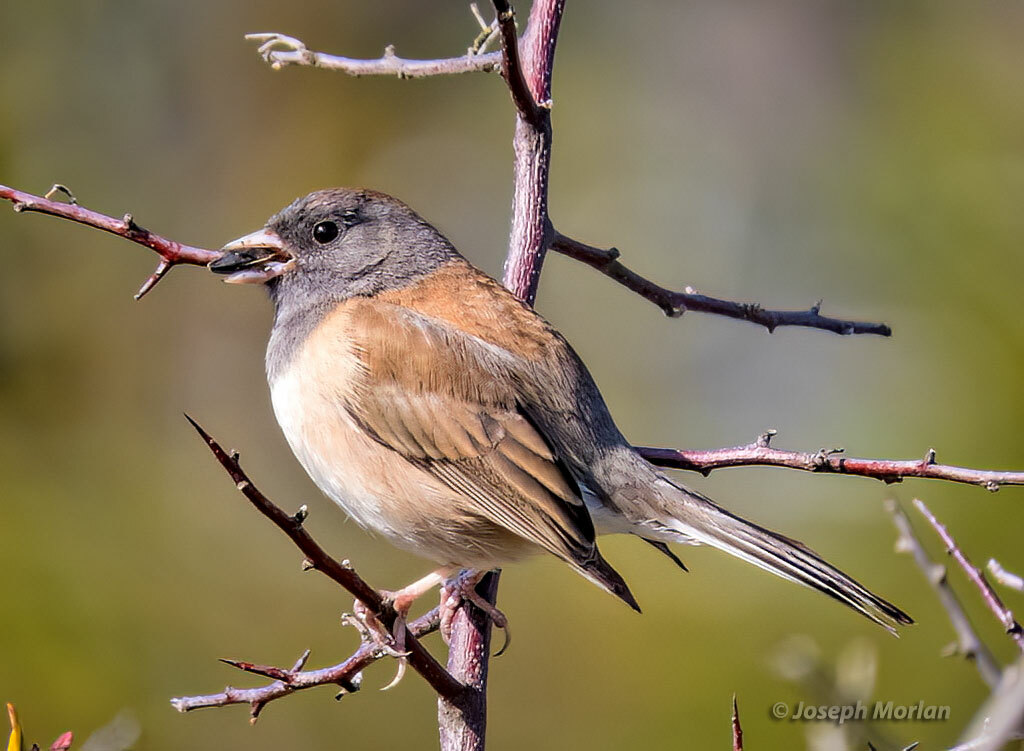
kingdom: Animalia
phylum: Chordata
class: Aves
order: Passeriformes
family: Passerellidae
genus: Junco
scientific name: Junco hyemalis
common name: Dark-eyed junco
